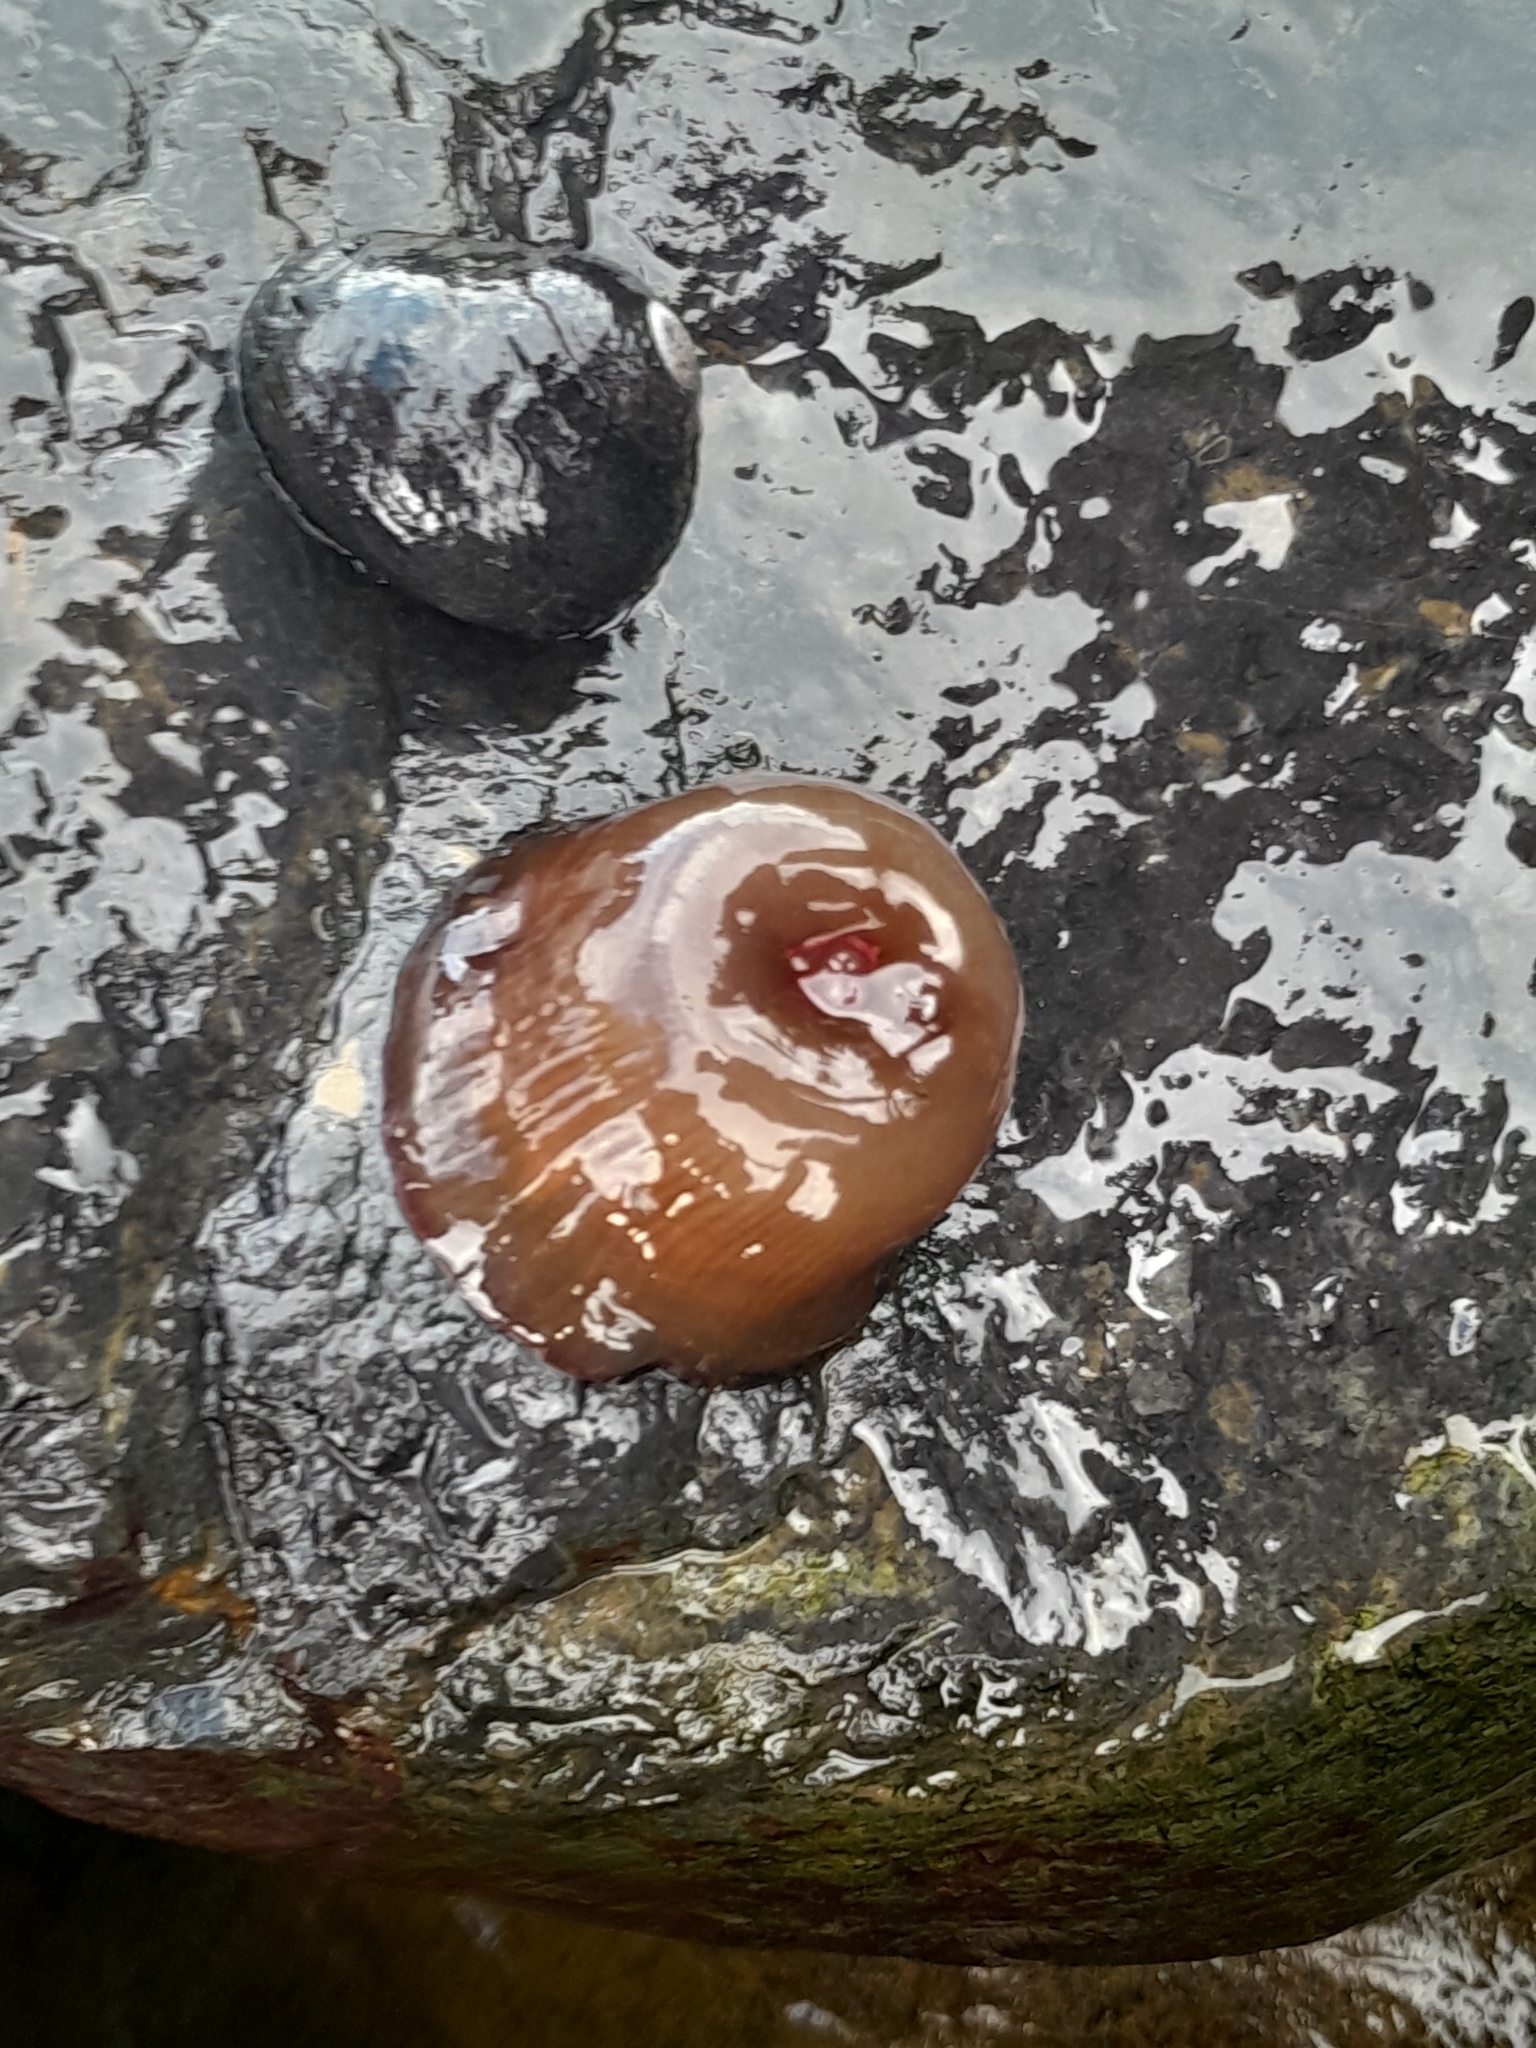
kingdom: Animalia
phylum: Cnidaria
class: Anthozoa
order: Actiniaria
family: Actiniidae
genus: Actinia
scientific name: Actinia tenebrosa
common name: Waratah anemone
